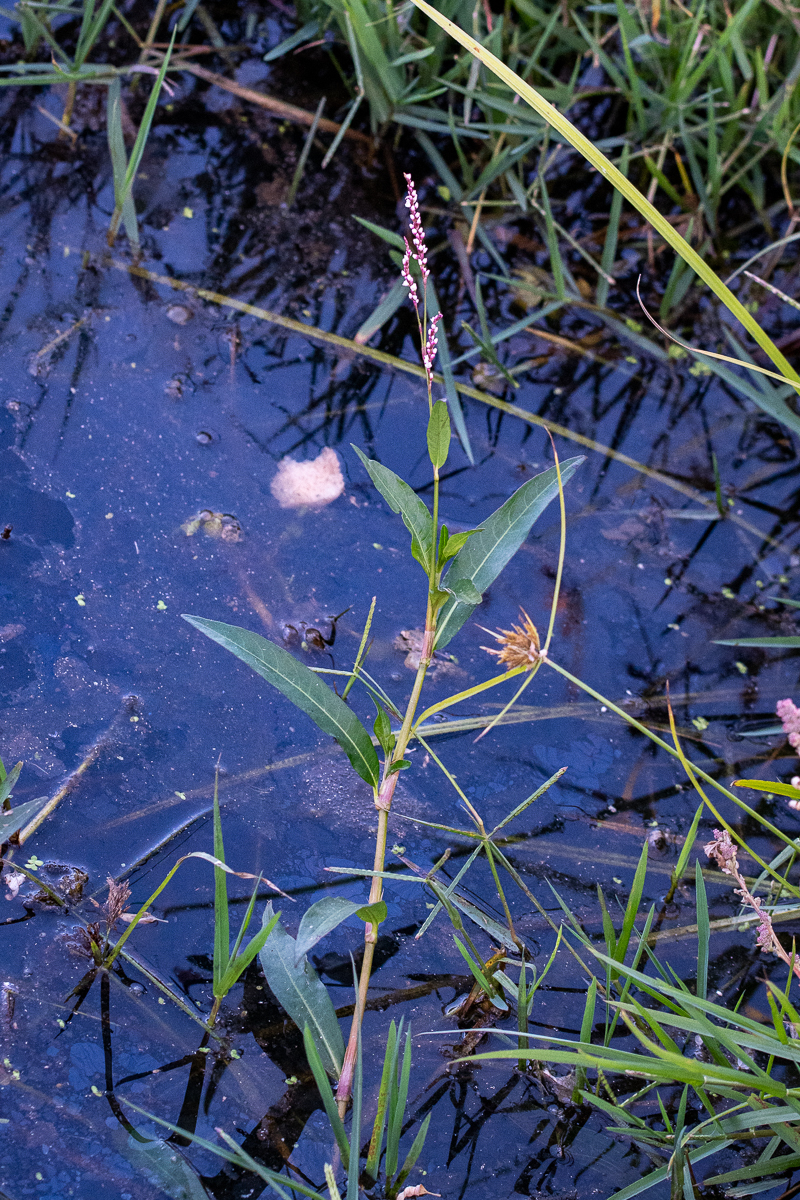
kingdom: Plantae
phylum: Tracheophyta
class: Magnoliopsida
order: Caryophyllales
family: Polygonaceae
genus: Persicaria
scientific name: Persicaria decipiens
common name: Willow-weed
